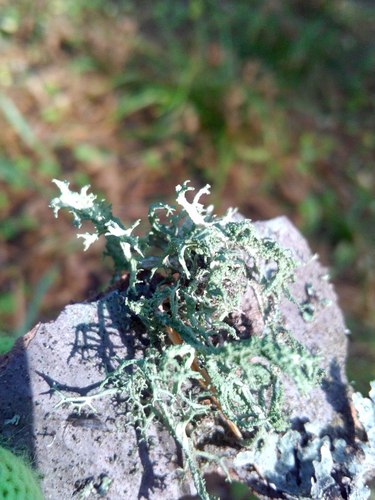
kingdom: Fungi
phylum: Ascomycota
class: Lecanoromycetes
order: Lecanorales
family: Parmeliaceae
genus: Evernia
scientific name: Evernia
